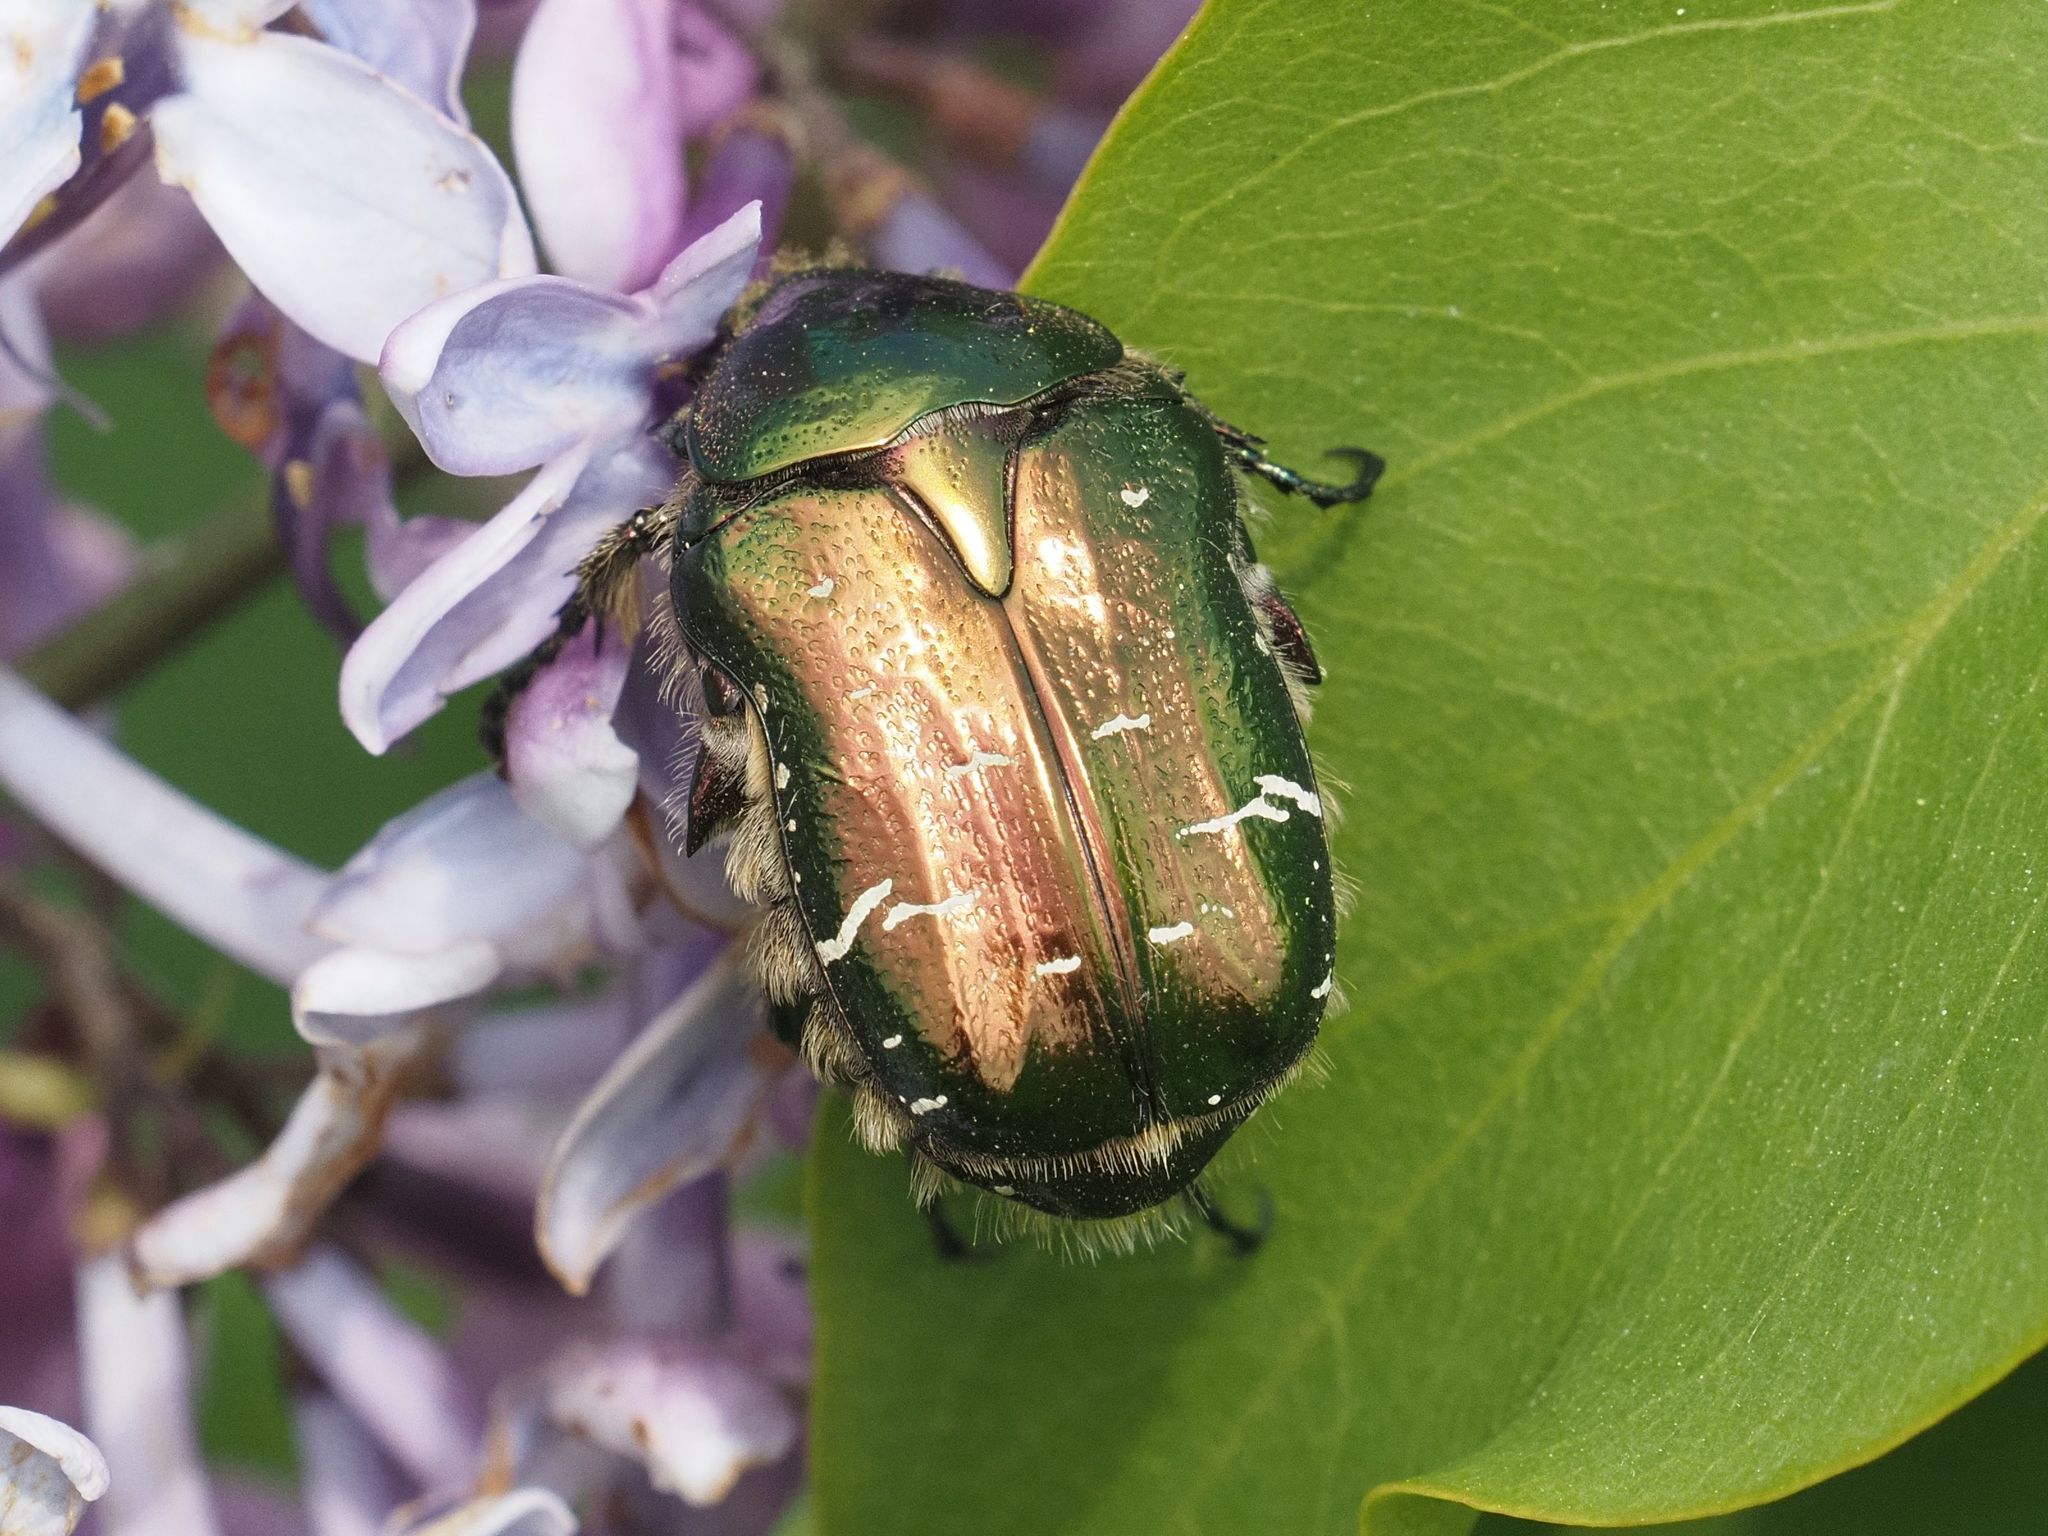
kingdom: Animalia
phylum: Arthropoda
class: Insecta
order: Coleoptera
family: Scarabaeidae
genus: Cetonia
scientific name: Cetonia aurata
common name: Rose chafer
